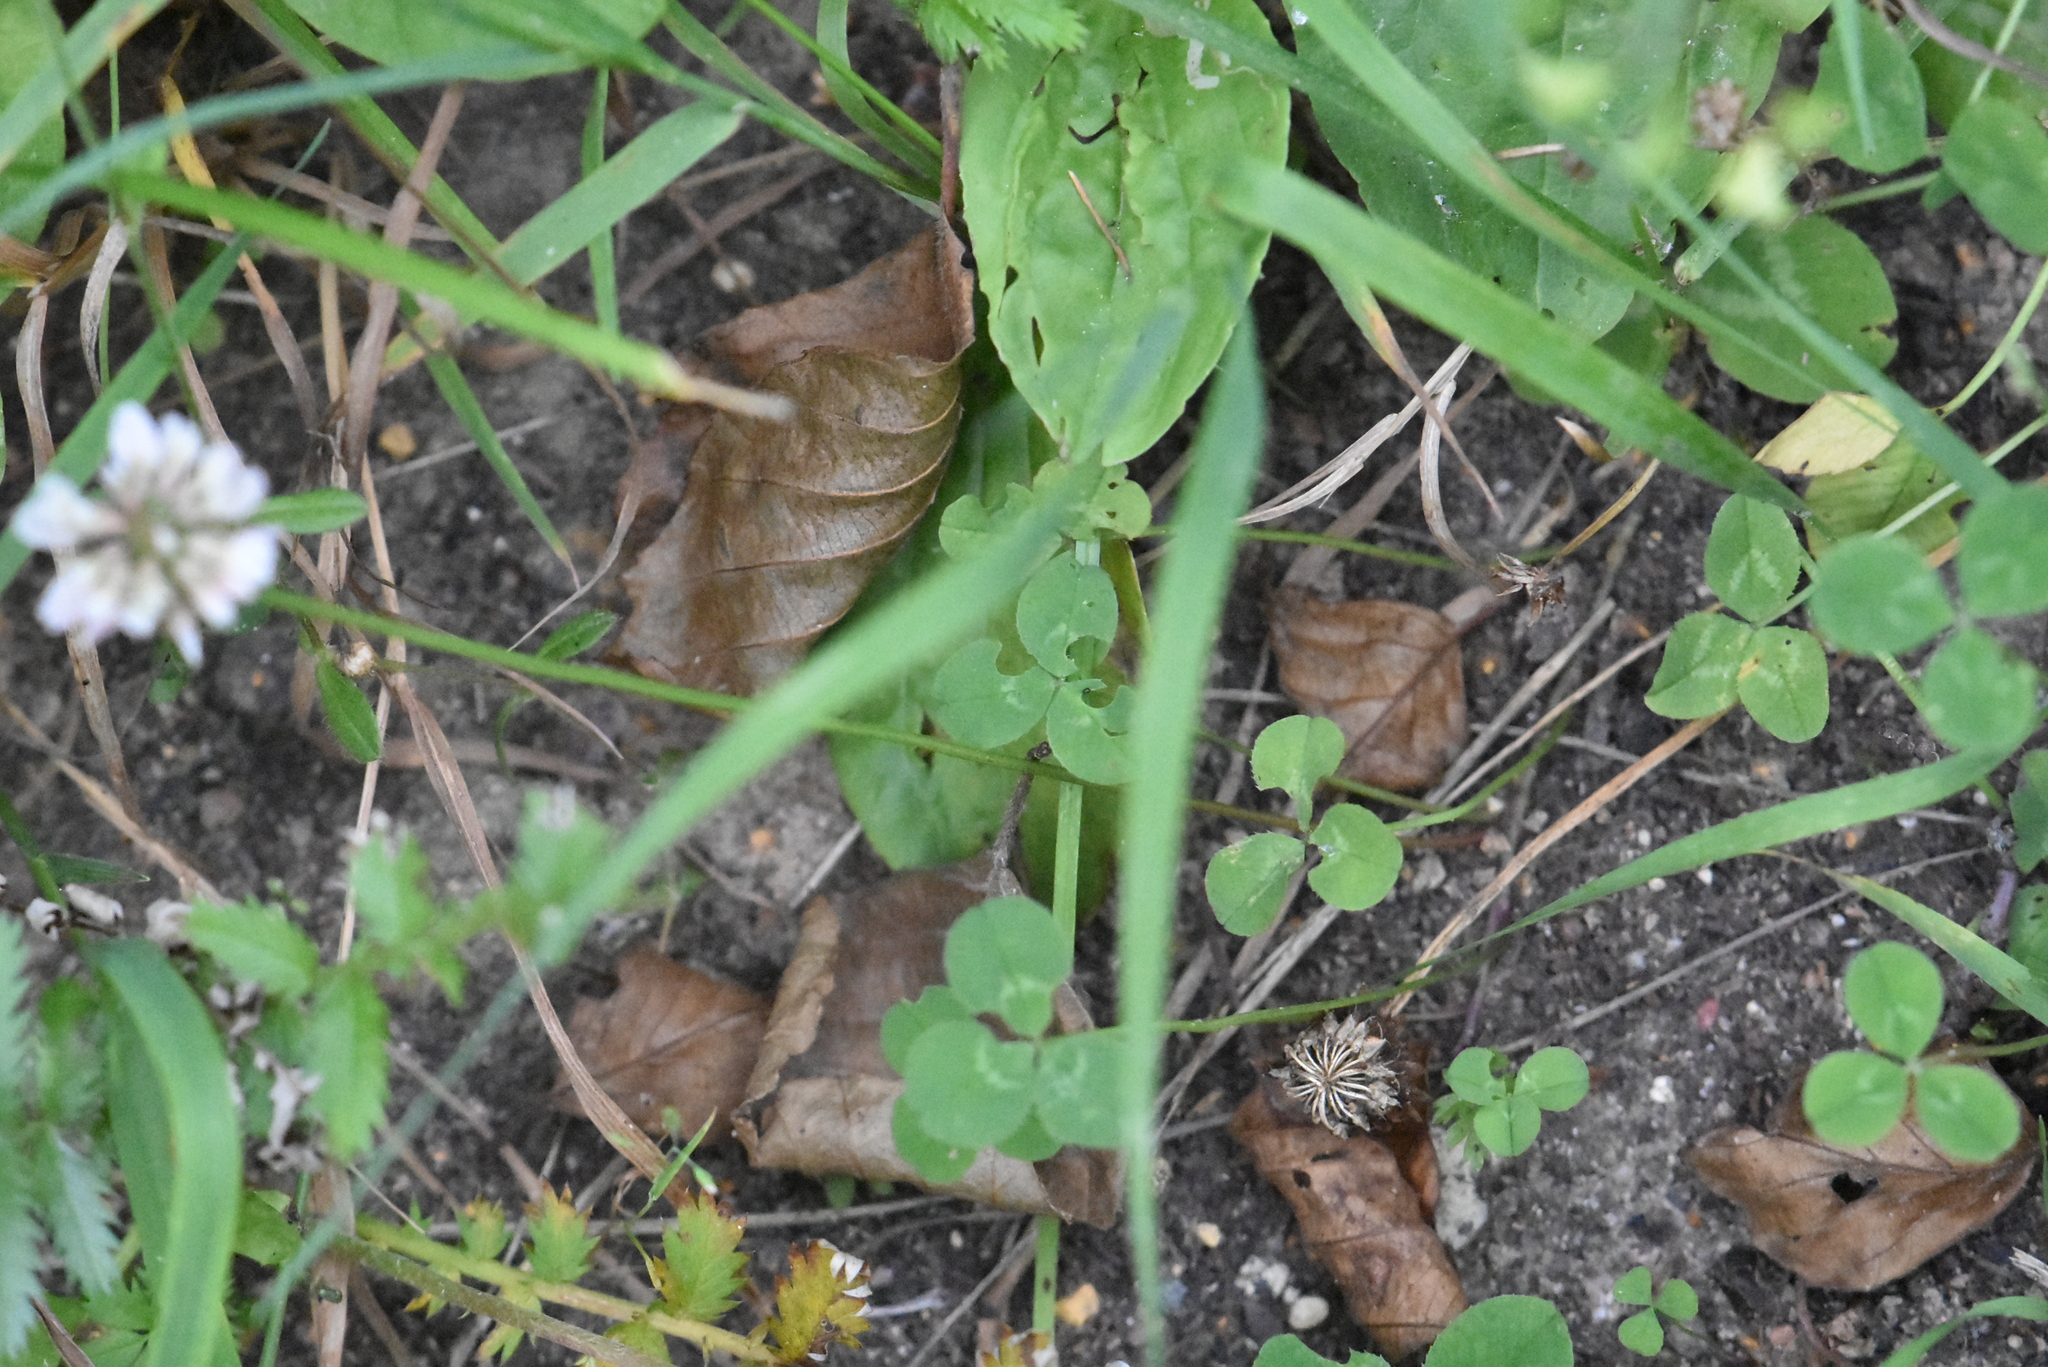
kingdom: Plantae
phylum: Tracheophyta
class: Magnoliopsida
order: Fabales
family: Fabaceae
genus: Trifolium
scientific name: Trifolium repens
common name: White clover
